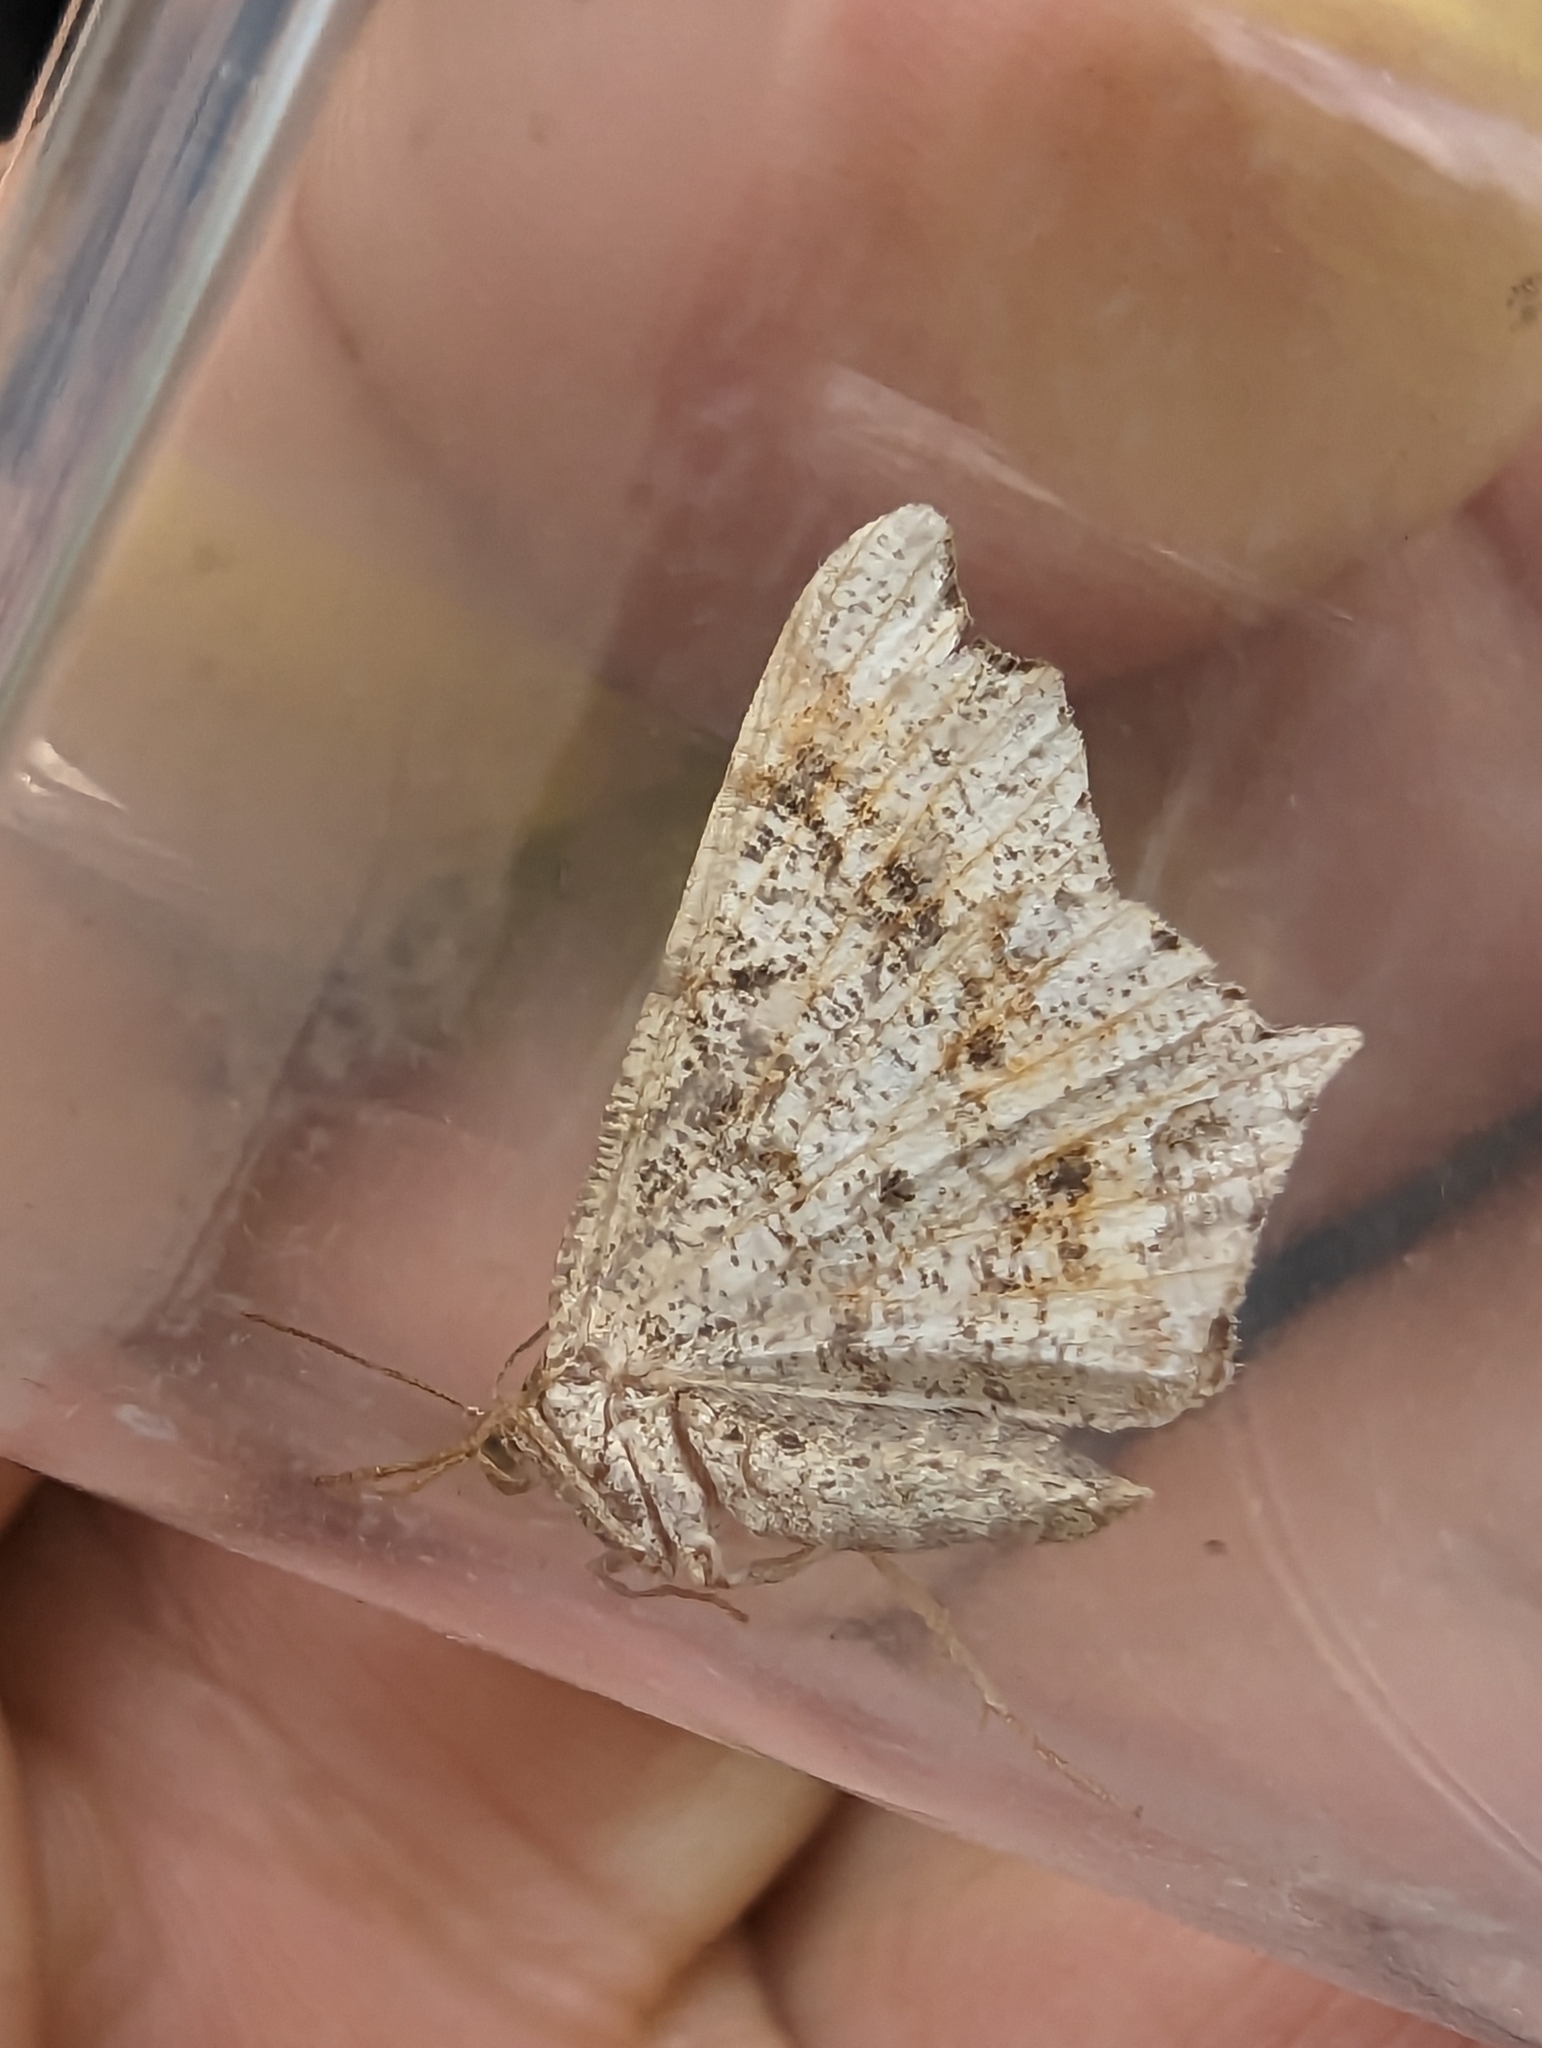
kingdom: Animalia
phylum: Arthropoda
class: Insecta
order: Lepidoptera
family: Geometridae
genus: Macaria
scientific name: Macaria alternata
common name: Sharp-angled peacock
